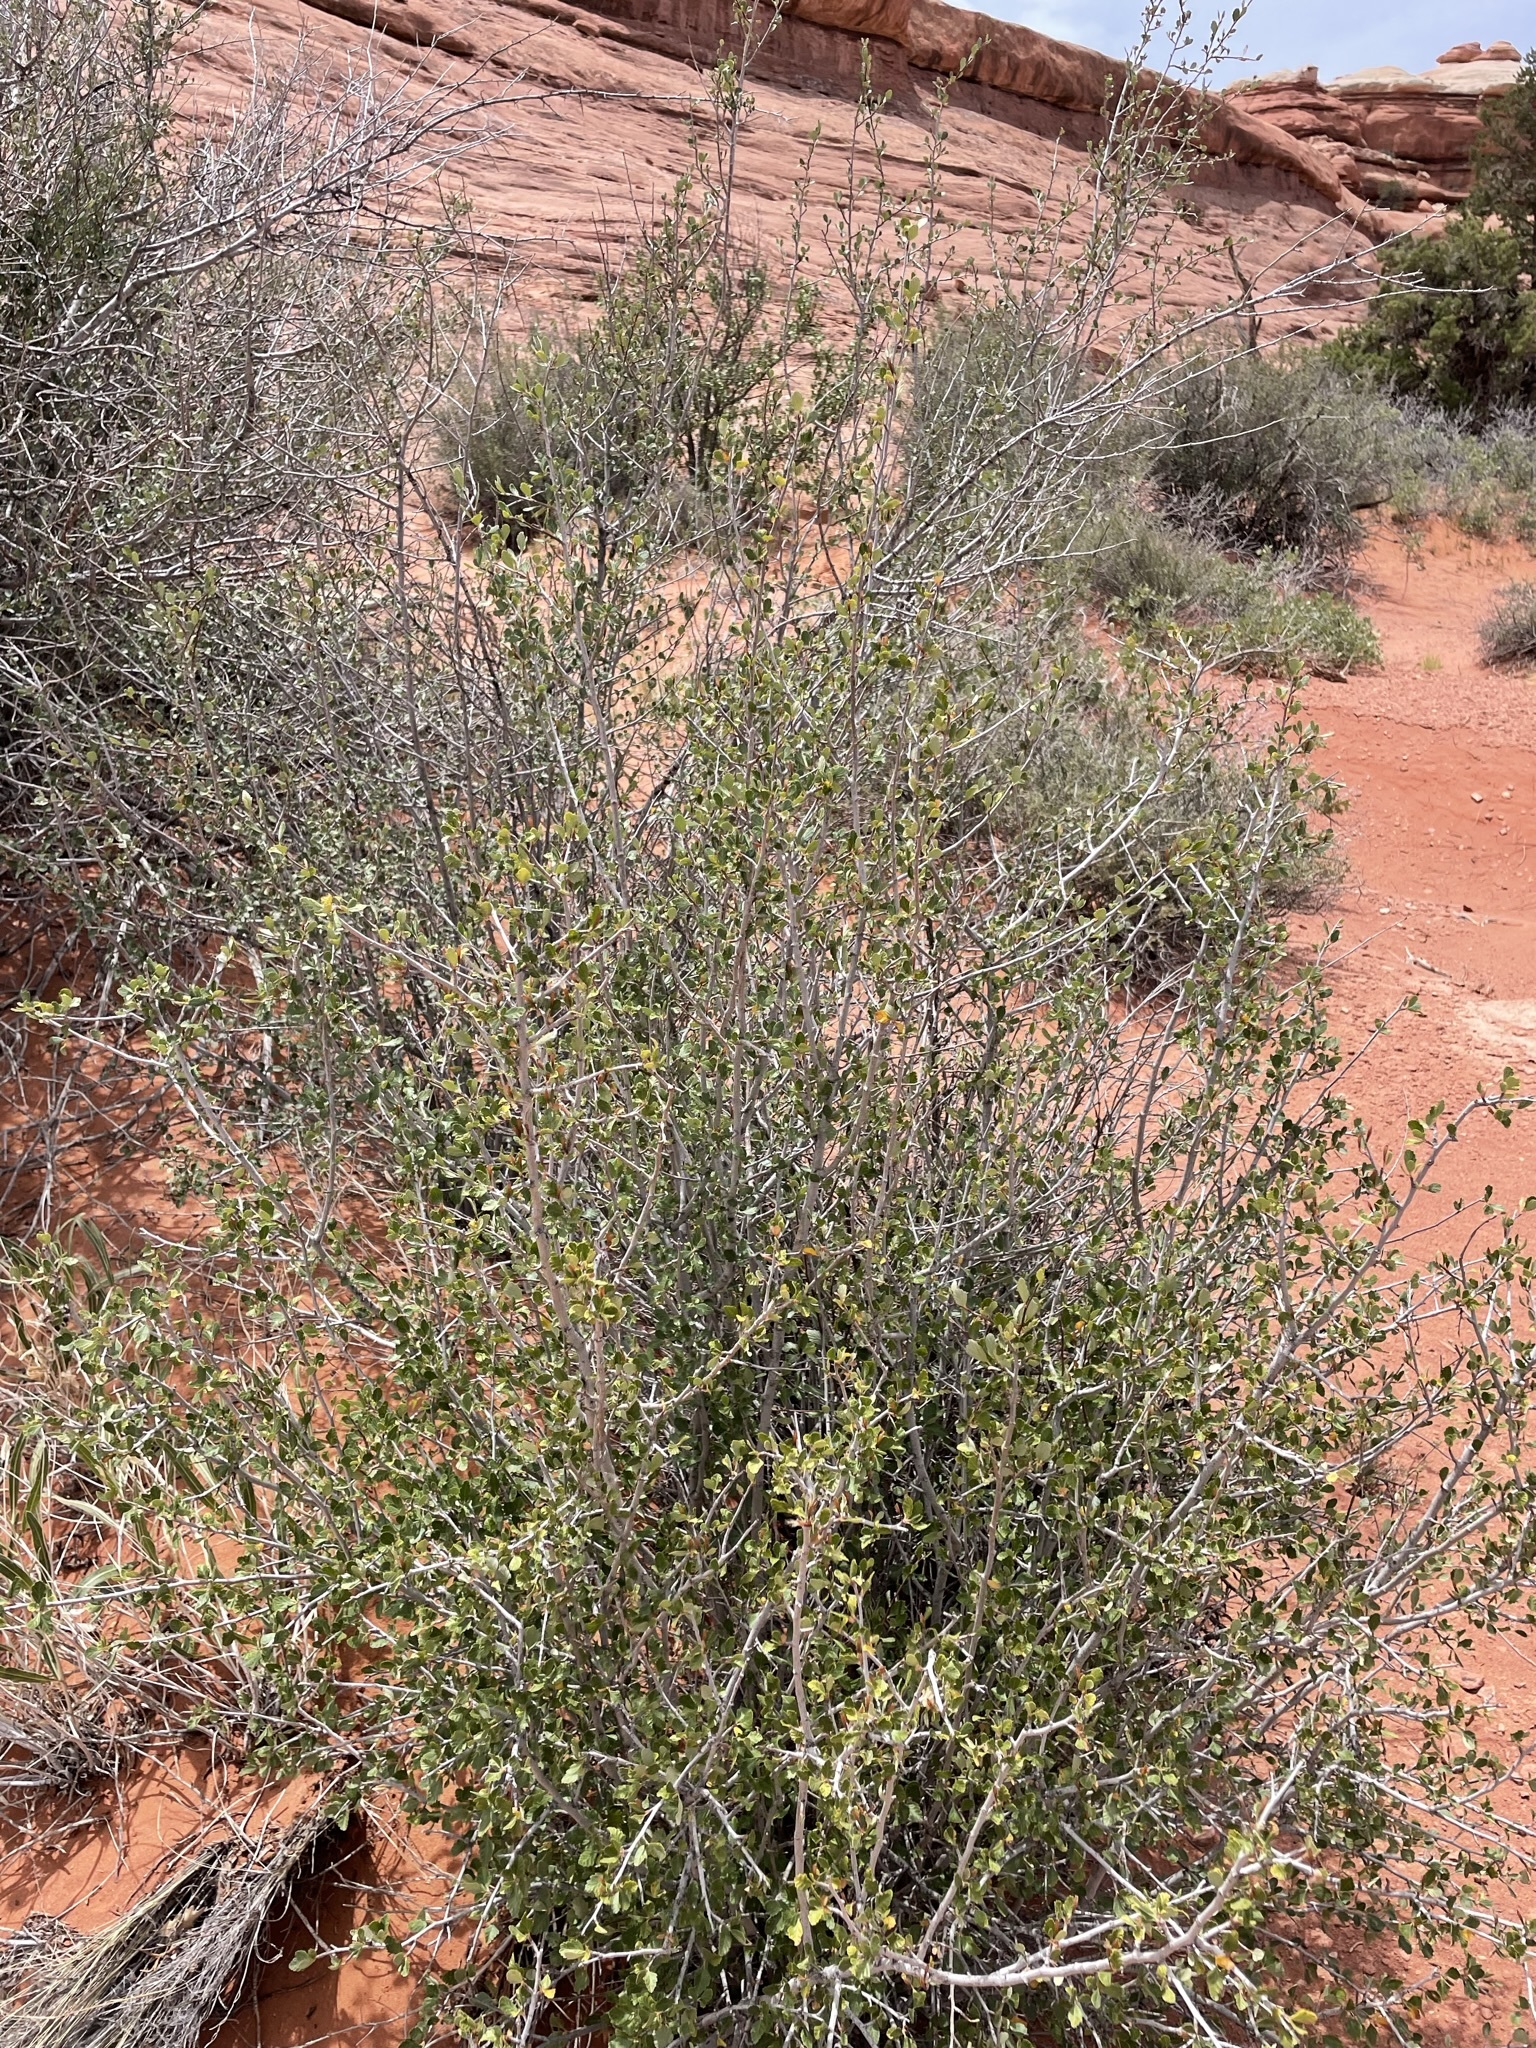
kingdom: Plantae
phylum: Tracheophyta
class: Magnoliopsida
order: Rosales
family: Rosaceae
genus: Cercocarpus
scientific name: Cercocarpus montanus
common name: Alder-leaf cercocarpus
